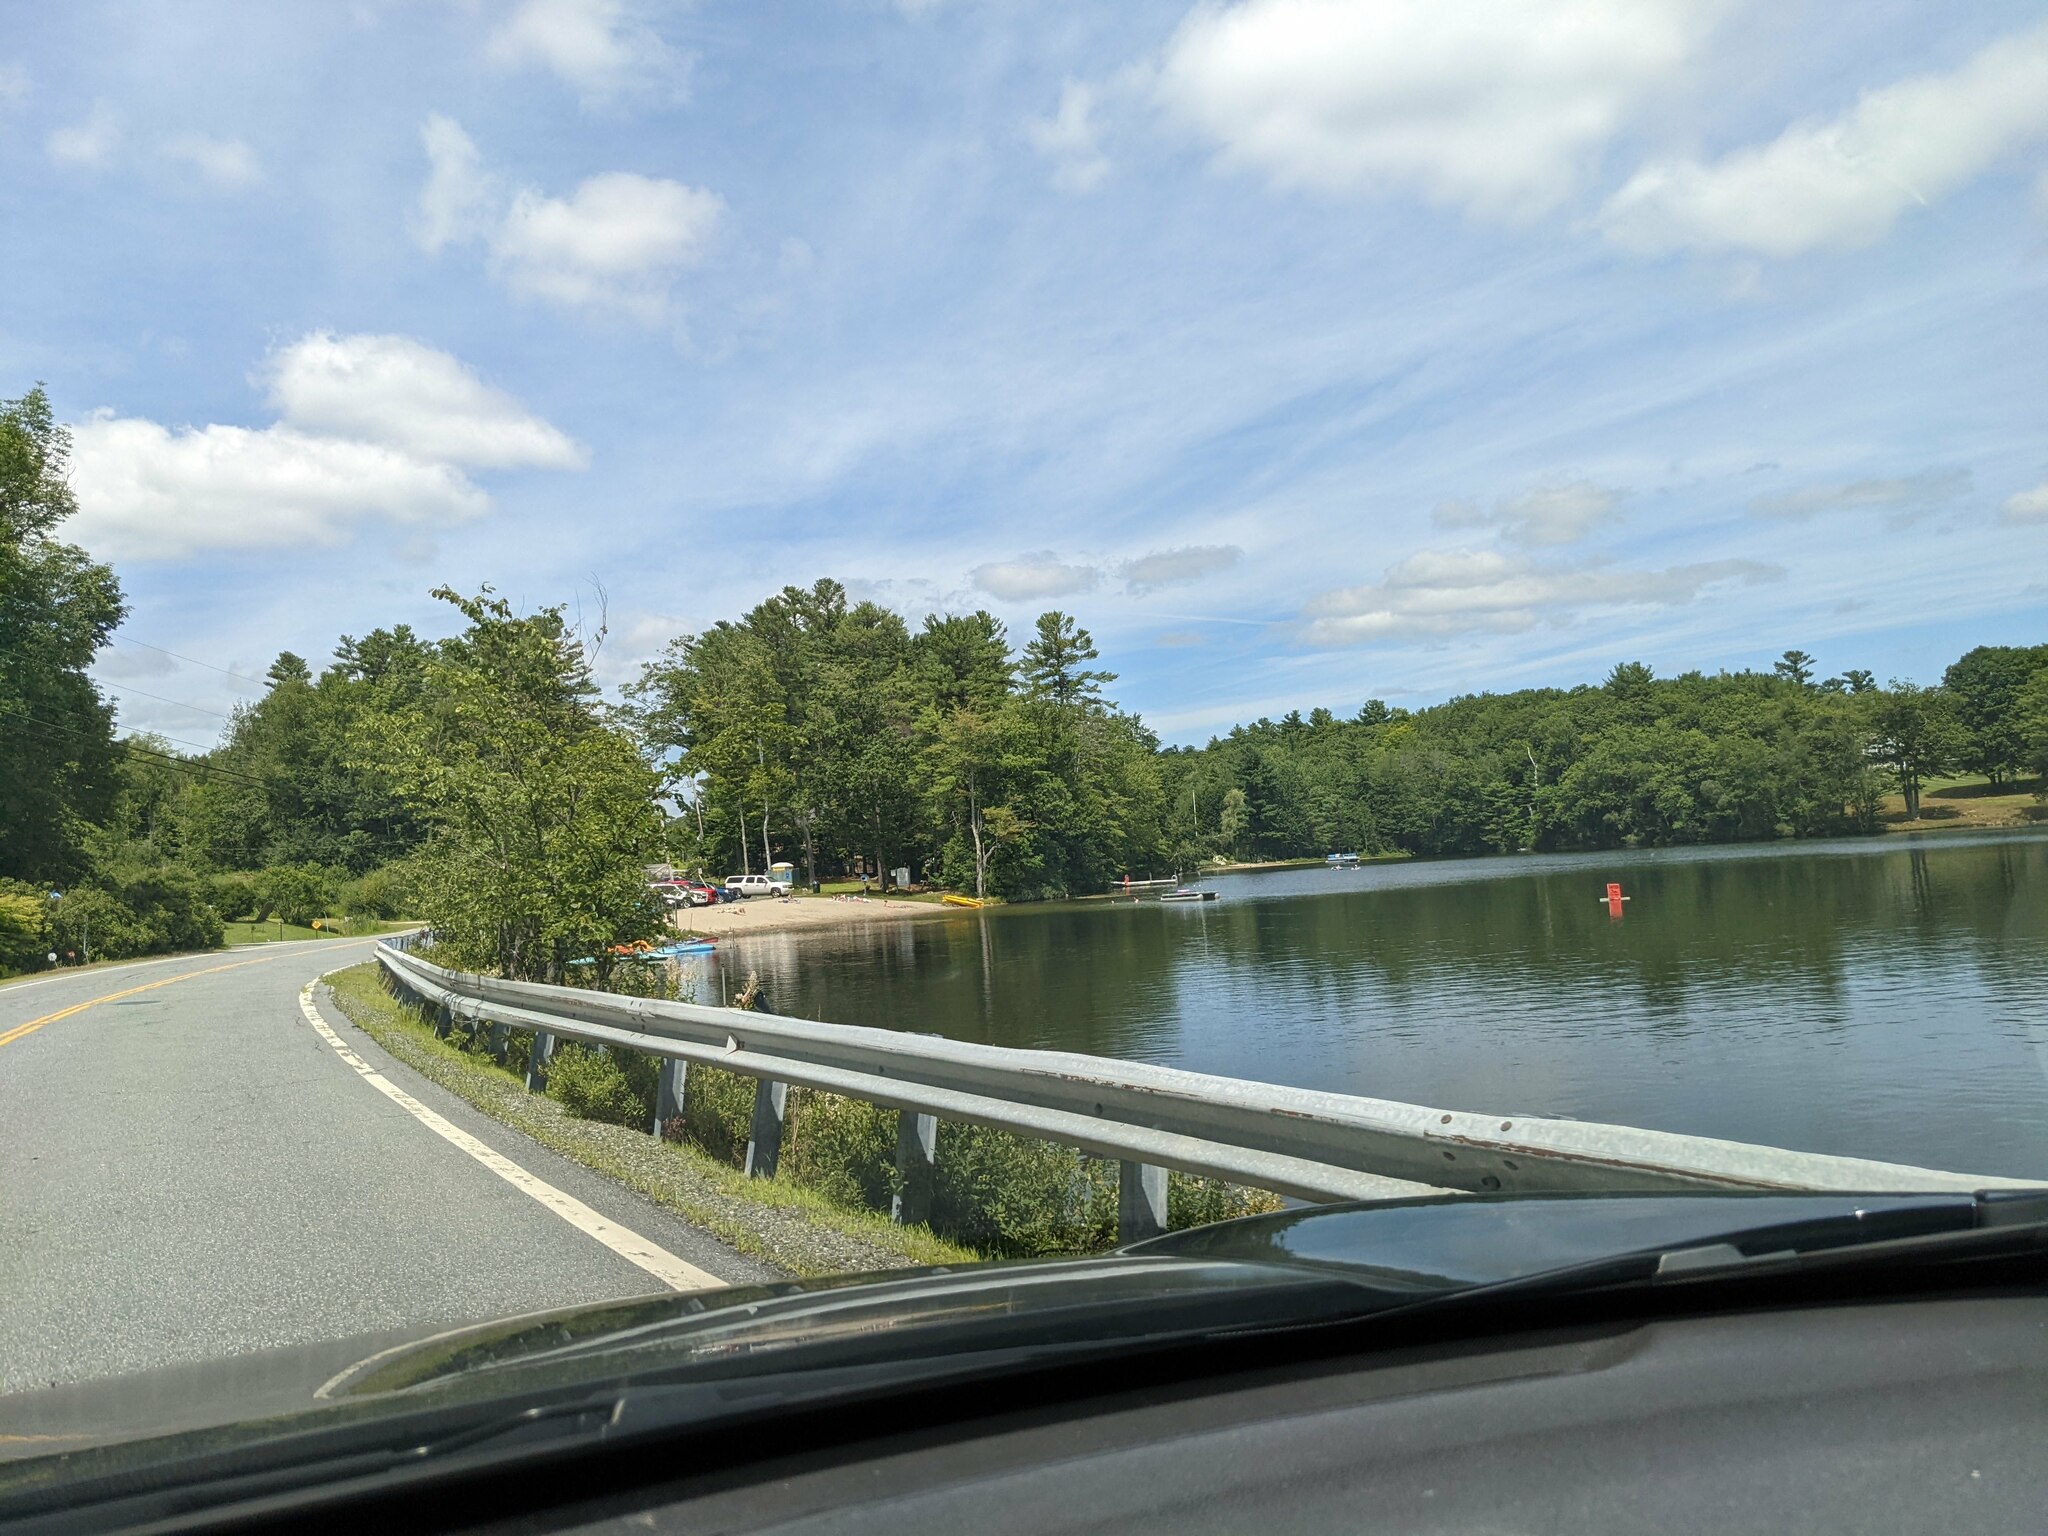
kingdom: Plantae
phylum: Tracheophyta
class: Pinopsida
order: Pinales
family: Pinaceae
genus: Pinus
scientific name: Pinus strobus
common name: Weymouth pine
